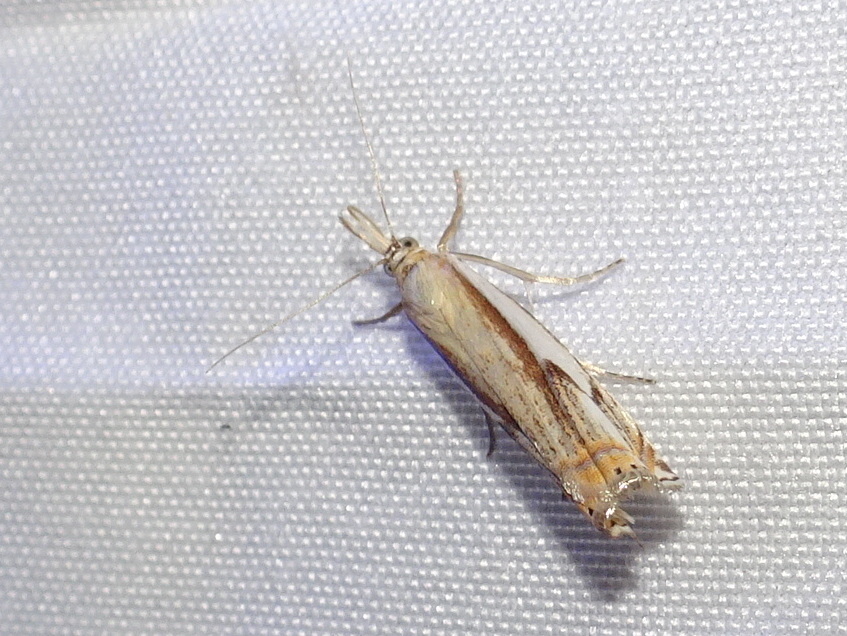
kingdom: Animalia
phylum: Arthropoda
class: Insecta
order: Lepidoptera
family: Crambidae
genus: Crambus
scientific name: Crambus agitatellus
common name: Double-banded grass-veneer
